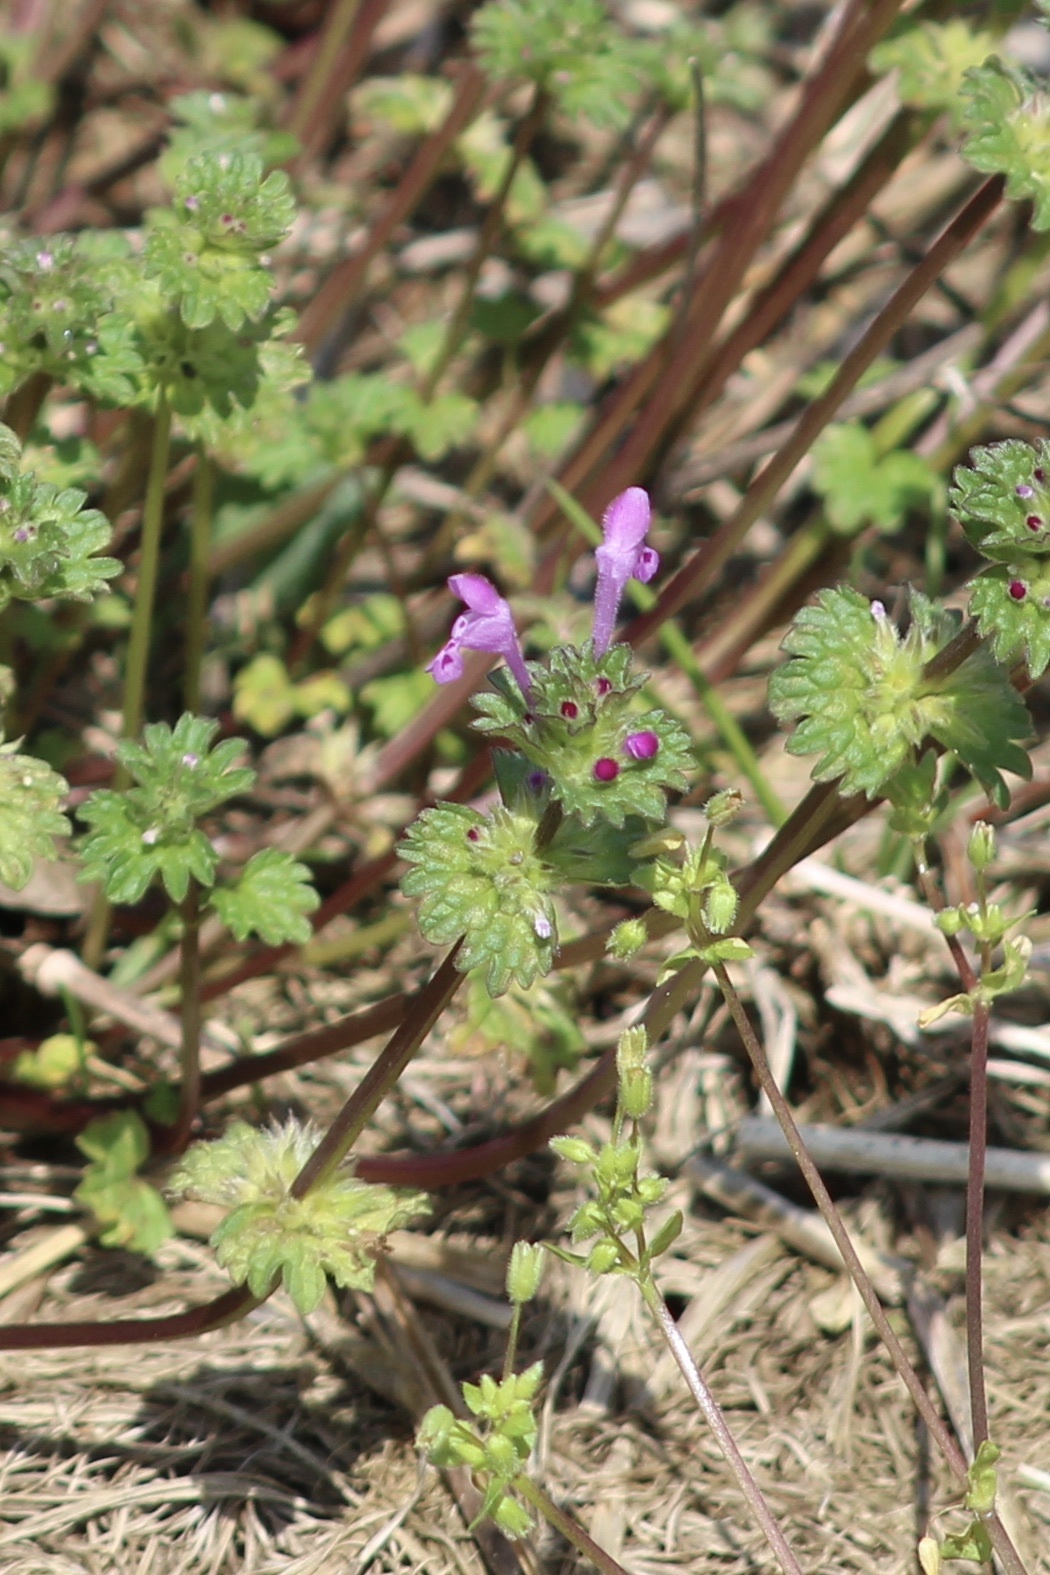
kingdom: Plantae
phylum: Tracheophyta
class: Magnoliopsida
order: Lamiales
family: Lamiaceae
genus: Lamium
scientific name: Lamium amplexicaule
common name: Henbit dead-nettle
